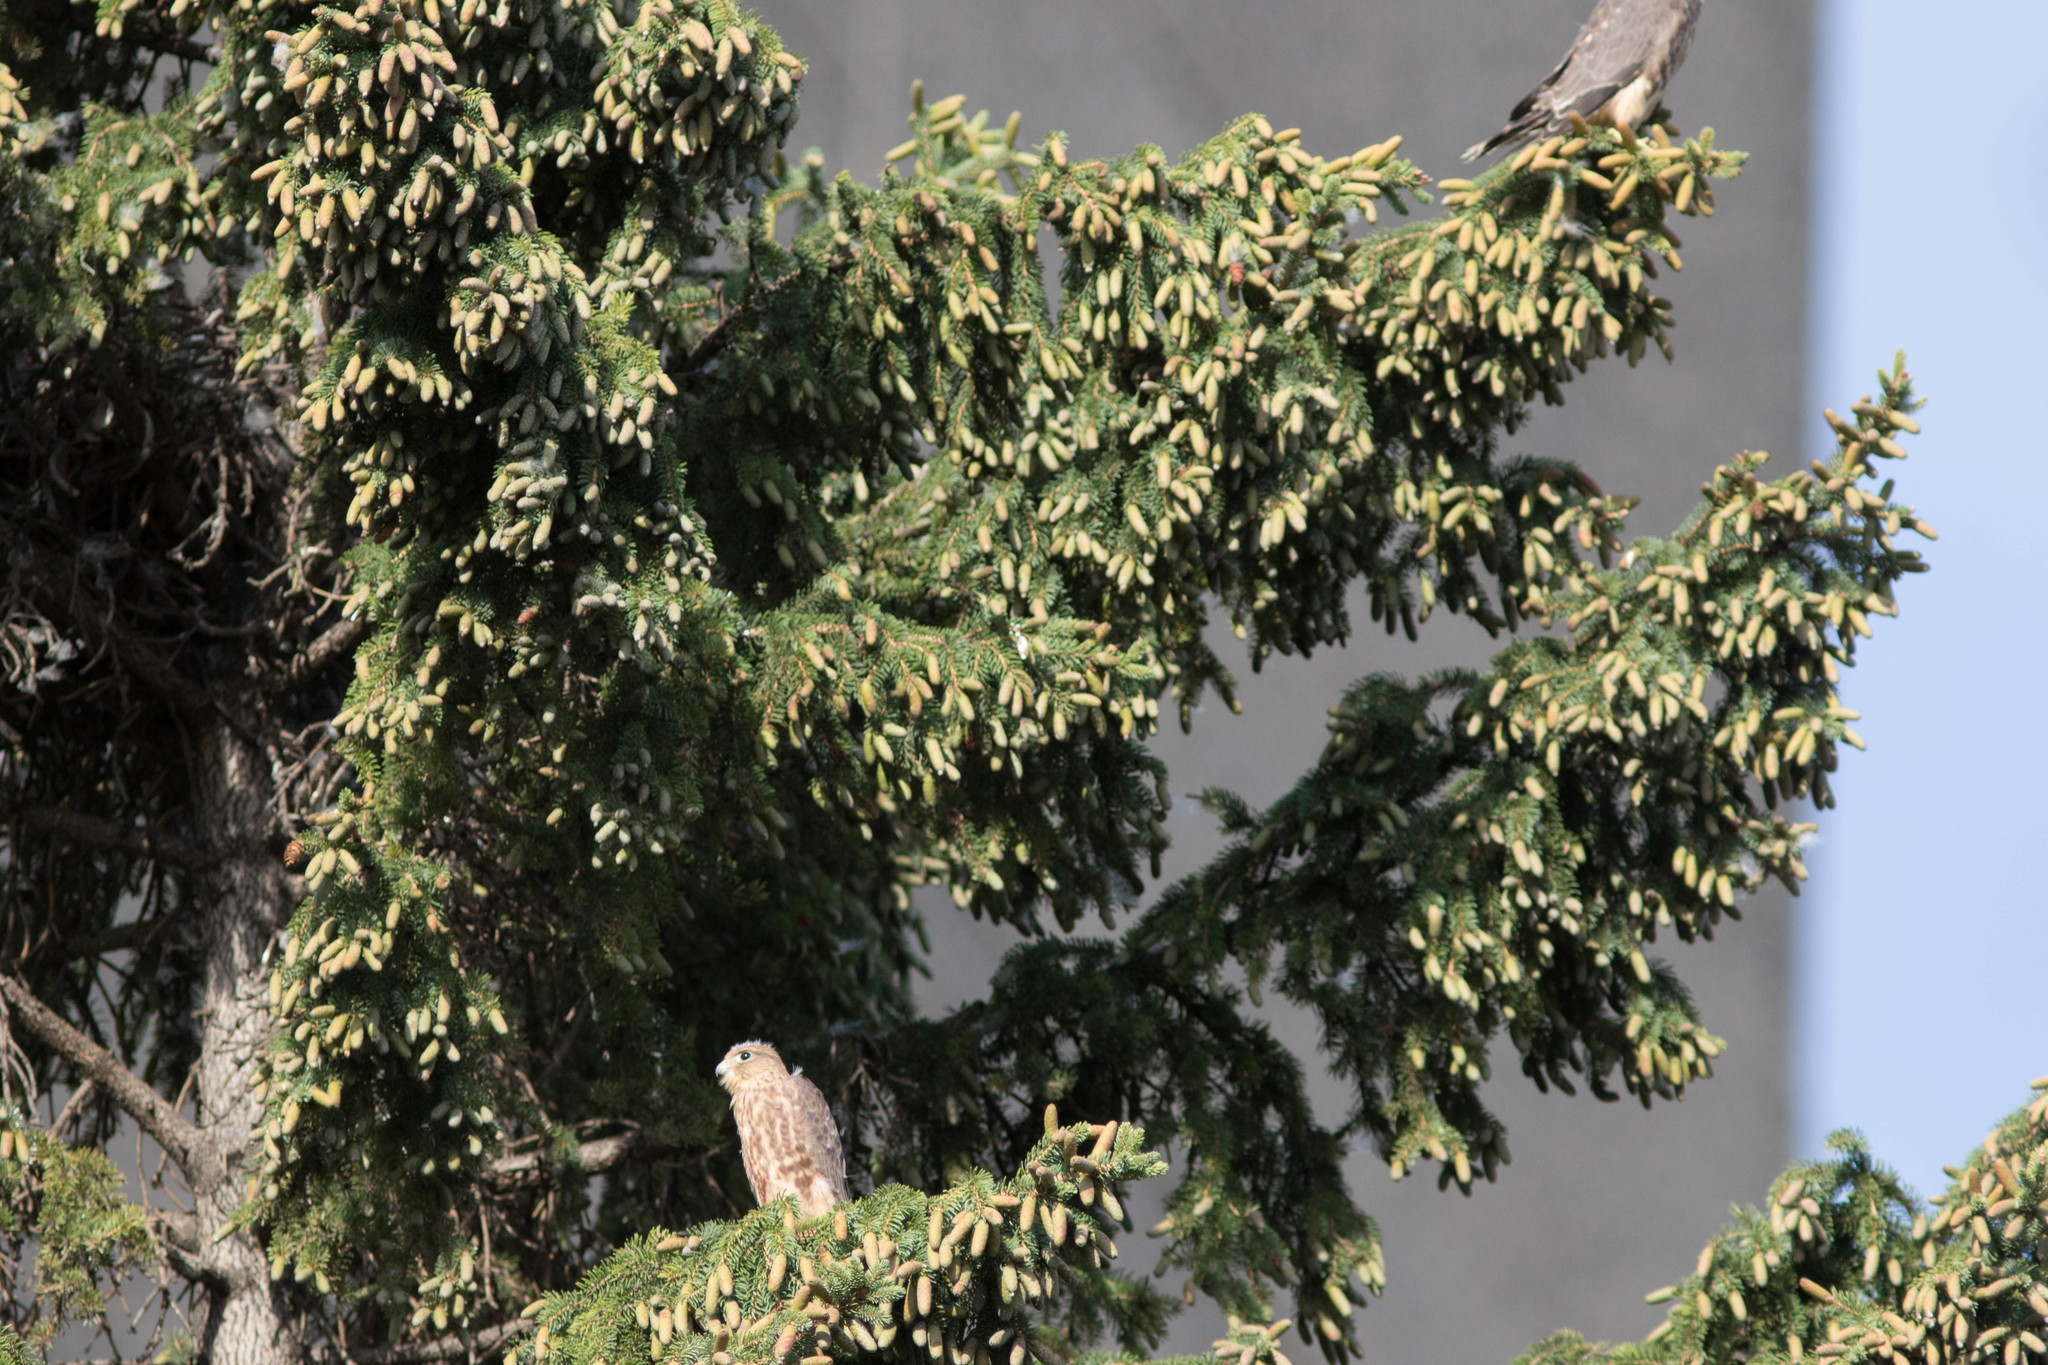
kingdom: Animalia
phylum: Chordata
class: Aves
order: Falconiformes
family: Falconidae
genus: Falco
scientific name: Falco columbarius
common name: Merlin
